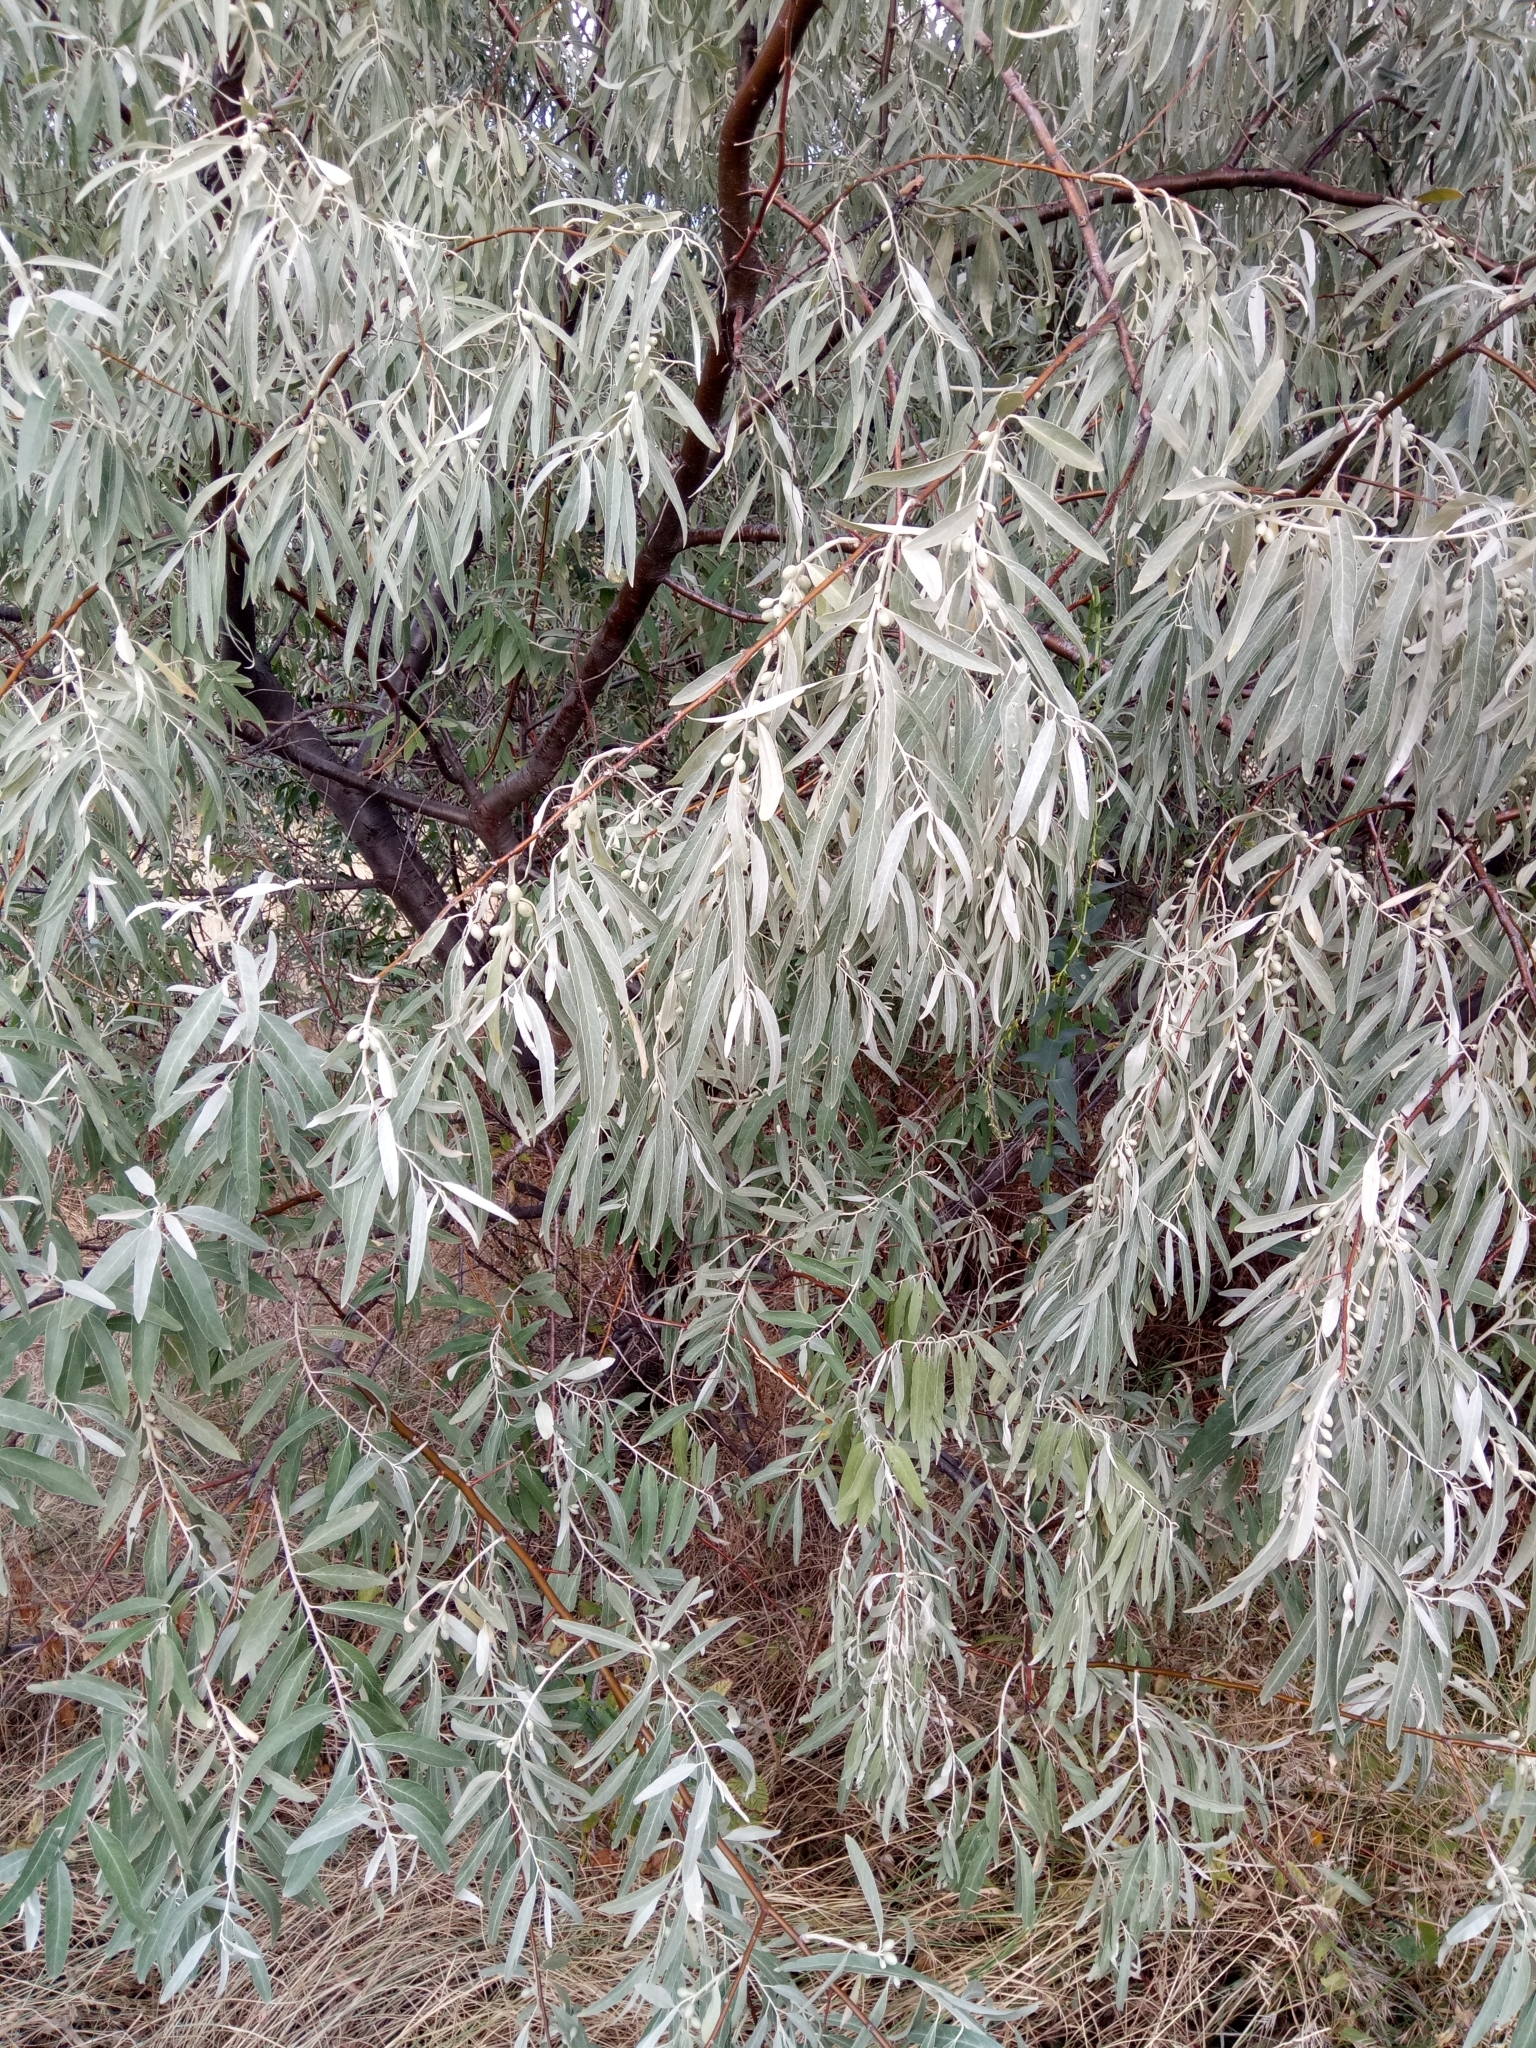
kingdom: Plantae
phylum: Tracheophyta
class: Magnoliopsida
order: Rosales
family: Elaeagnaceae
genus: Elaeagnus
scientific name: Elaeagnus angustifolia
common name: Russian olive
